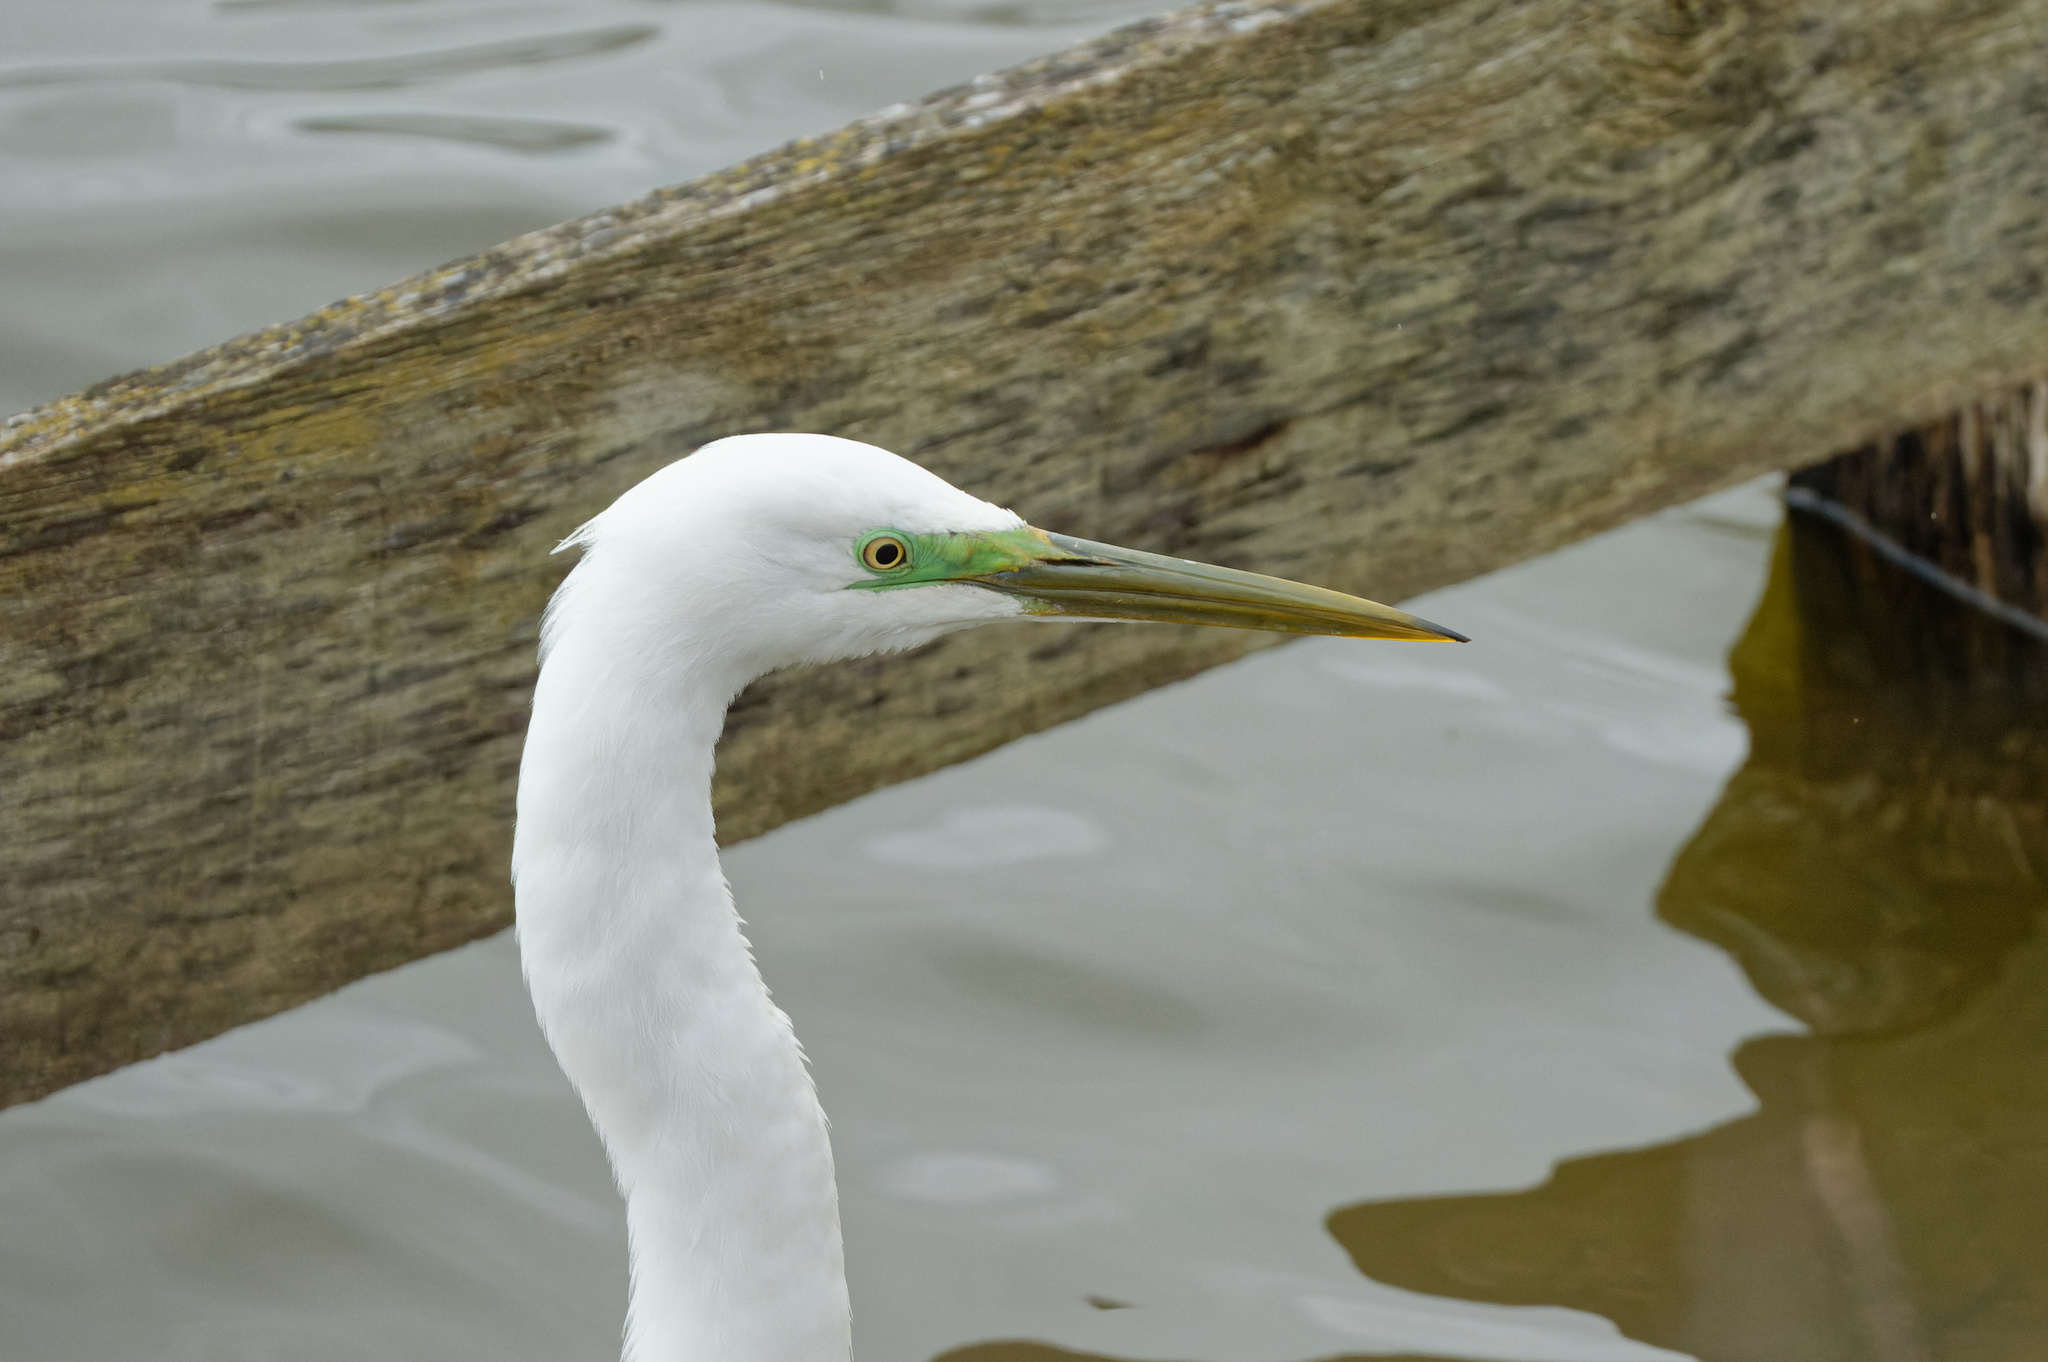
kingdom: Animalia
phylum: Chordata
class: Aves
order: Pelecaniformes
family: Ardeidae
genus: Ardea
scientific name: Ardea alba
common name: Great egret
